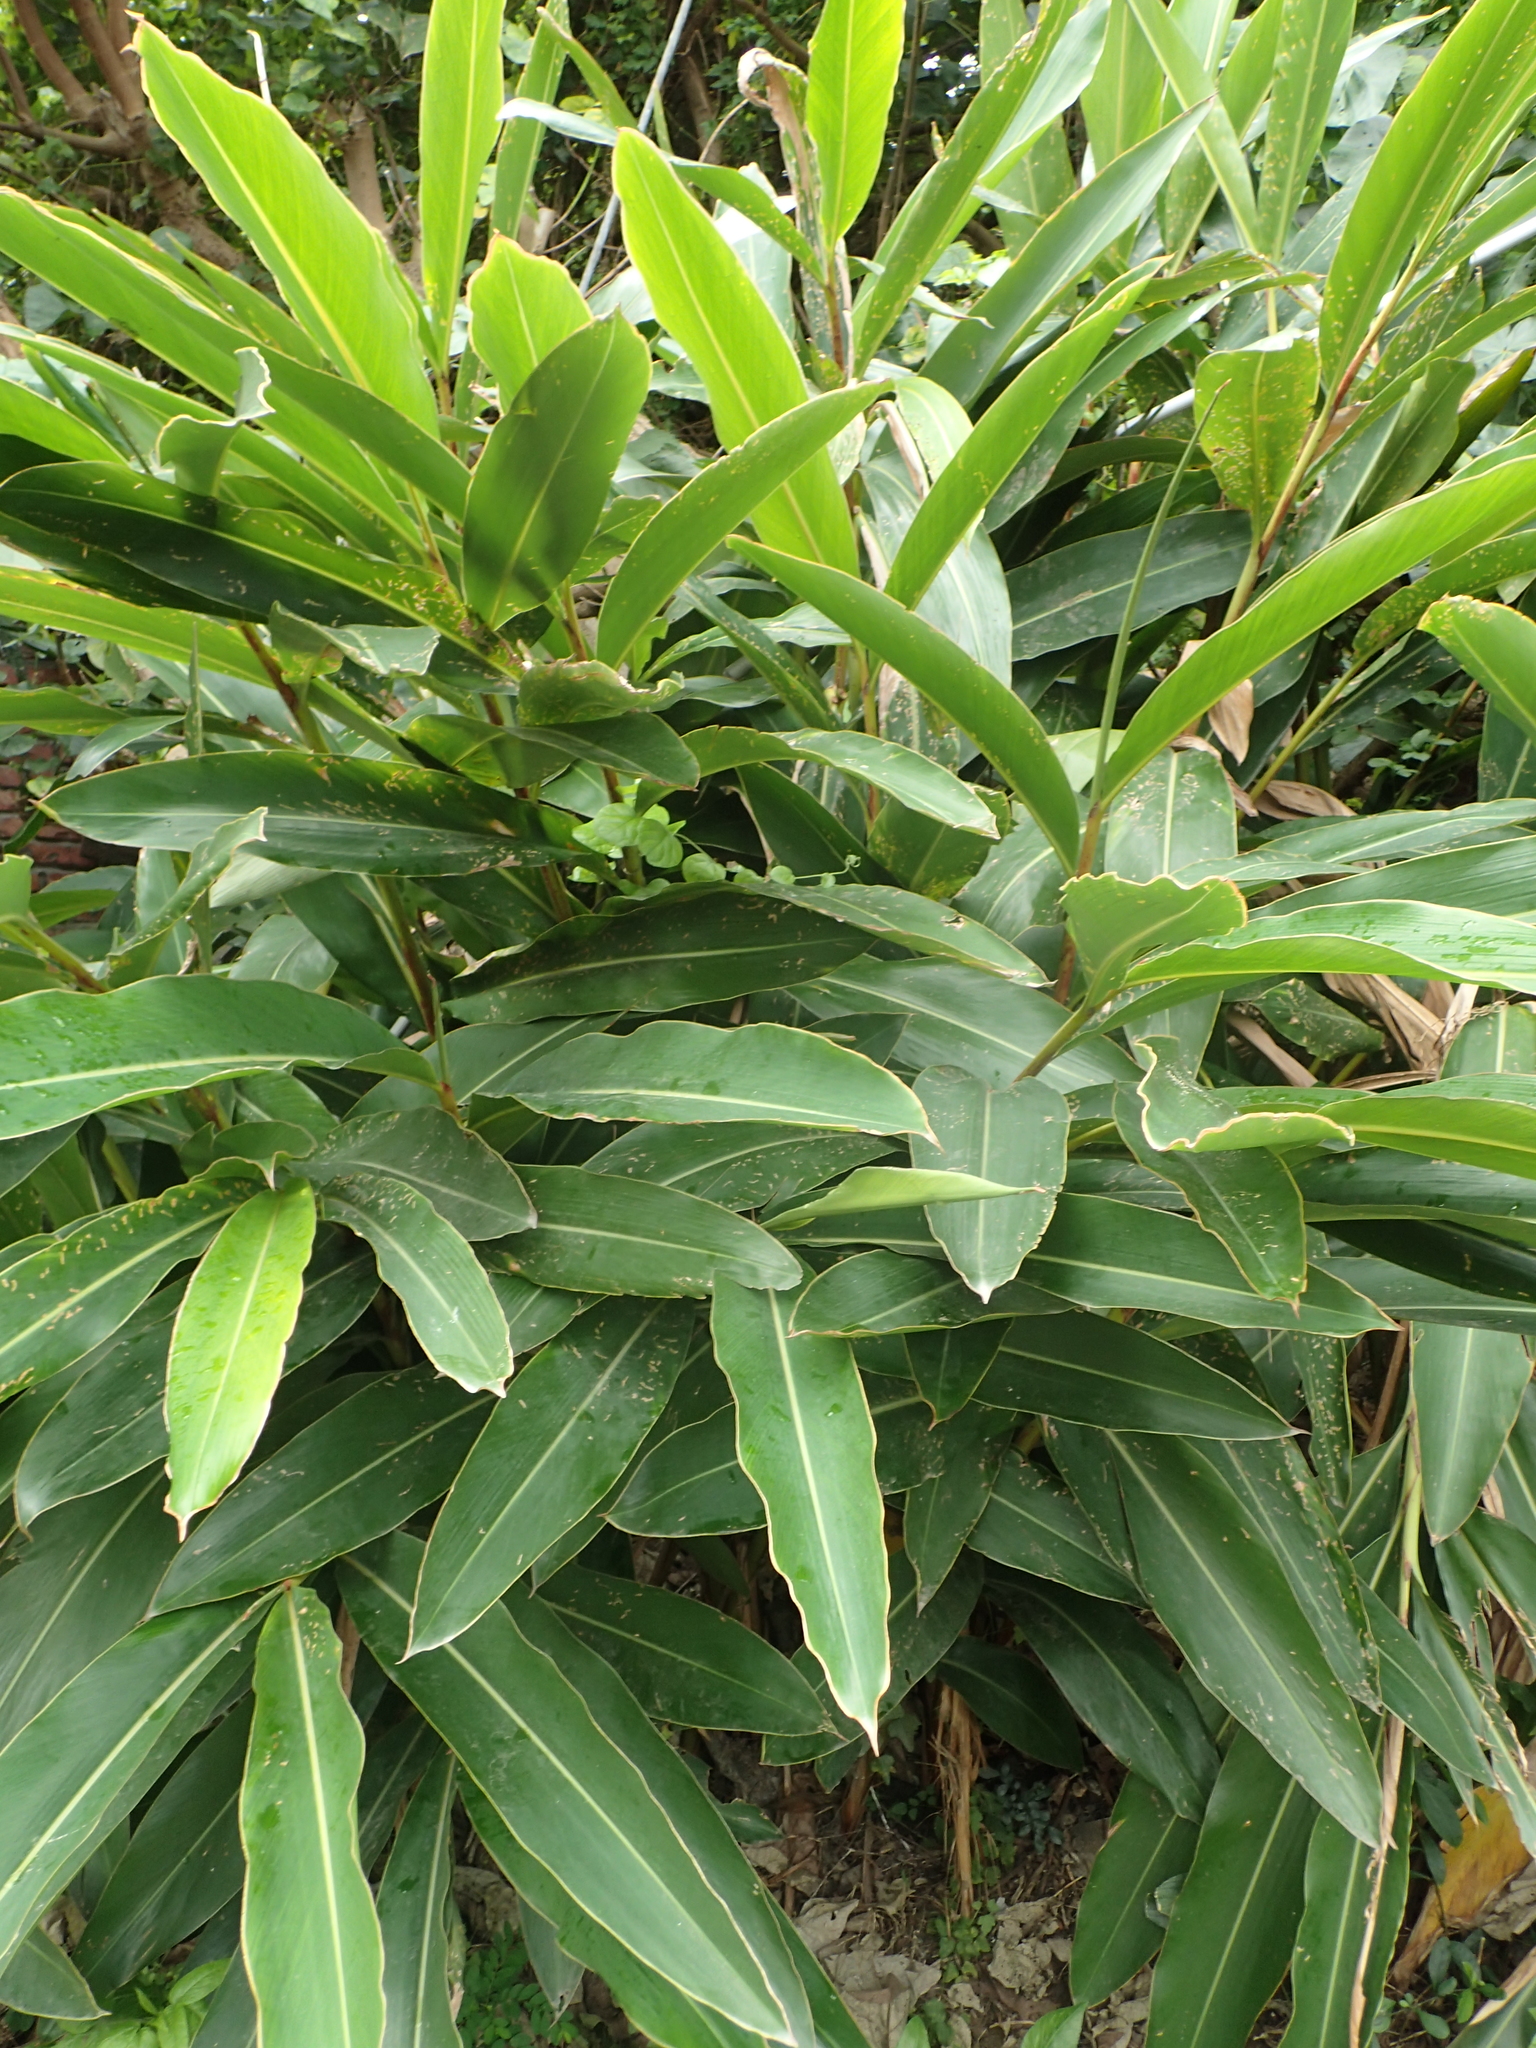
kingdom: Plantae
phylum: Tracheophyta
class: Liliopsida
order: Zingiberales
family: Zingiberaceae
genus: Alpinia
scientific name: Alpinia zerumbet
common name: Shellplant
